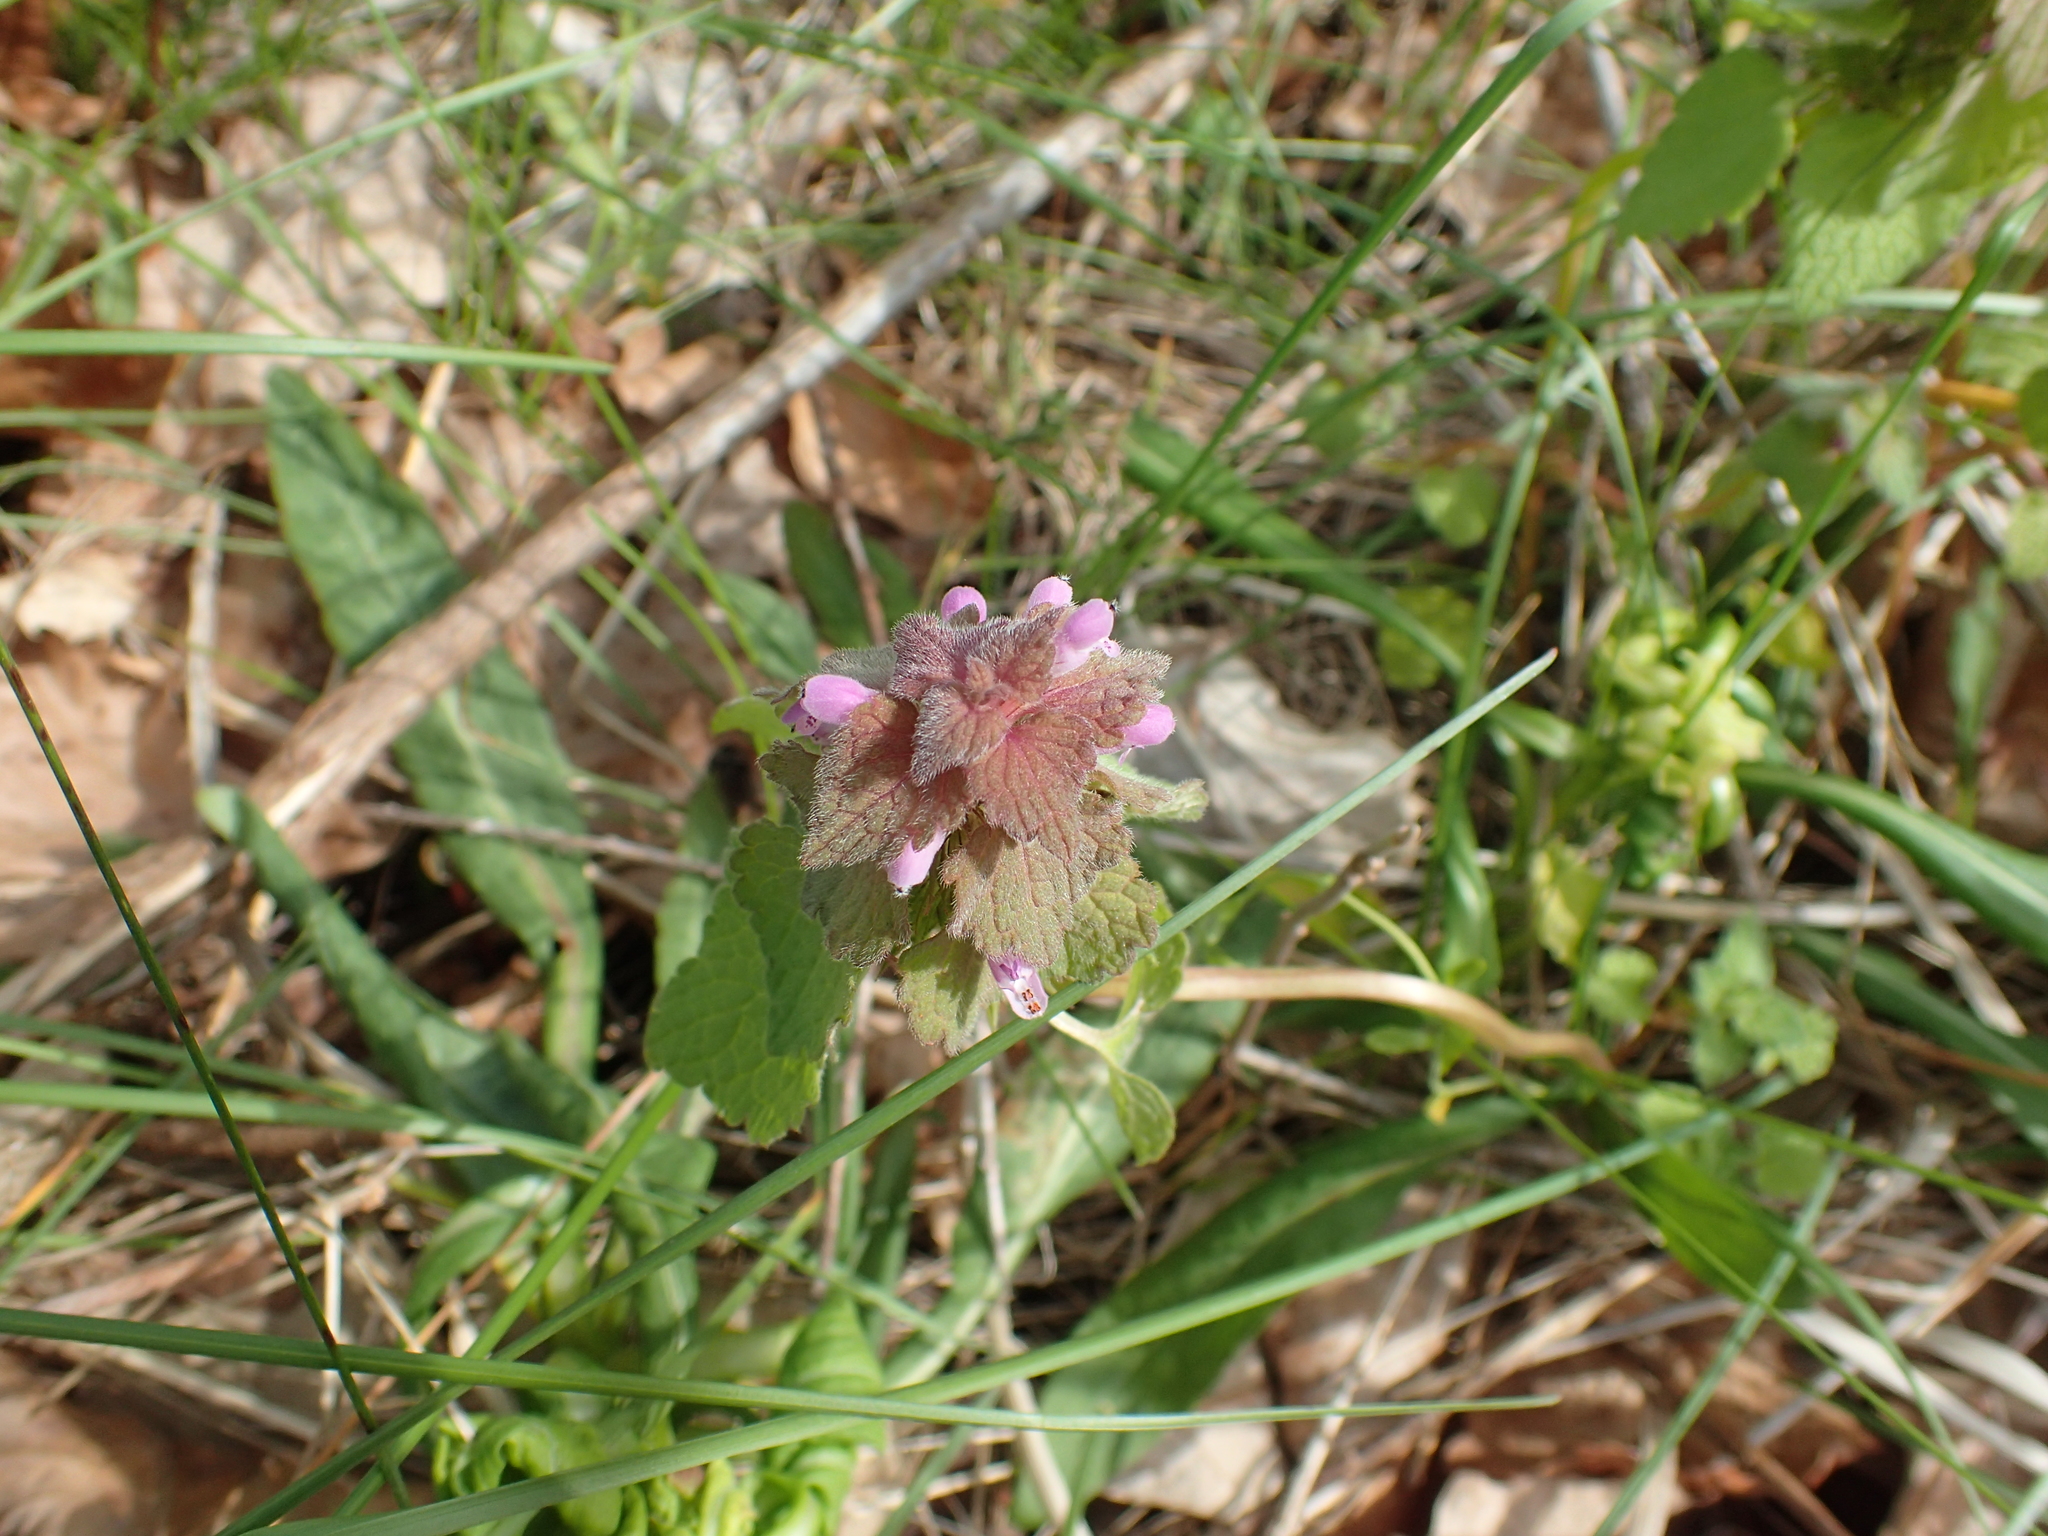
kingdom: Plantae
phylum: Tracheophyta
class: Magnoliopsida
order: Lamiales
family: Lamiaceae
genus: Lamium
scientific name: Lamium purpureum
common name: Red dead-nettle
